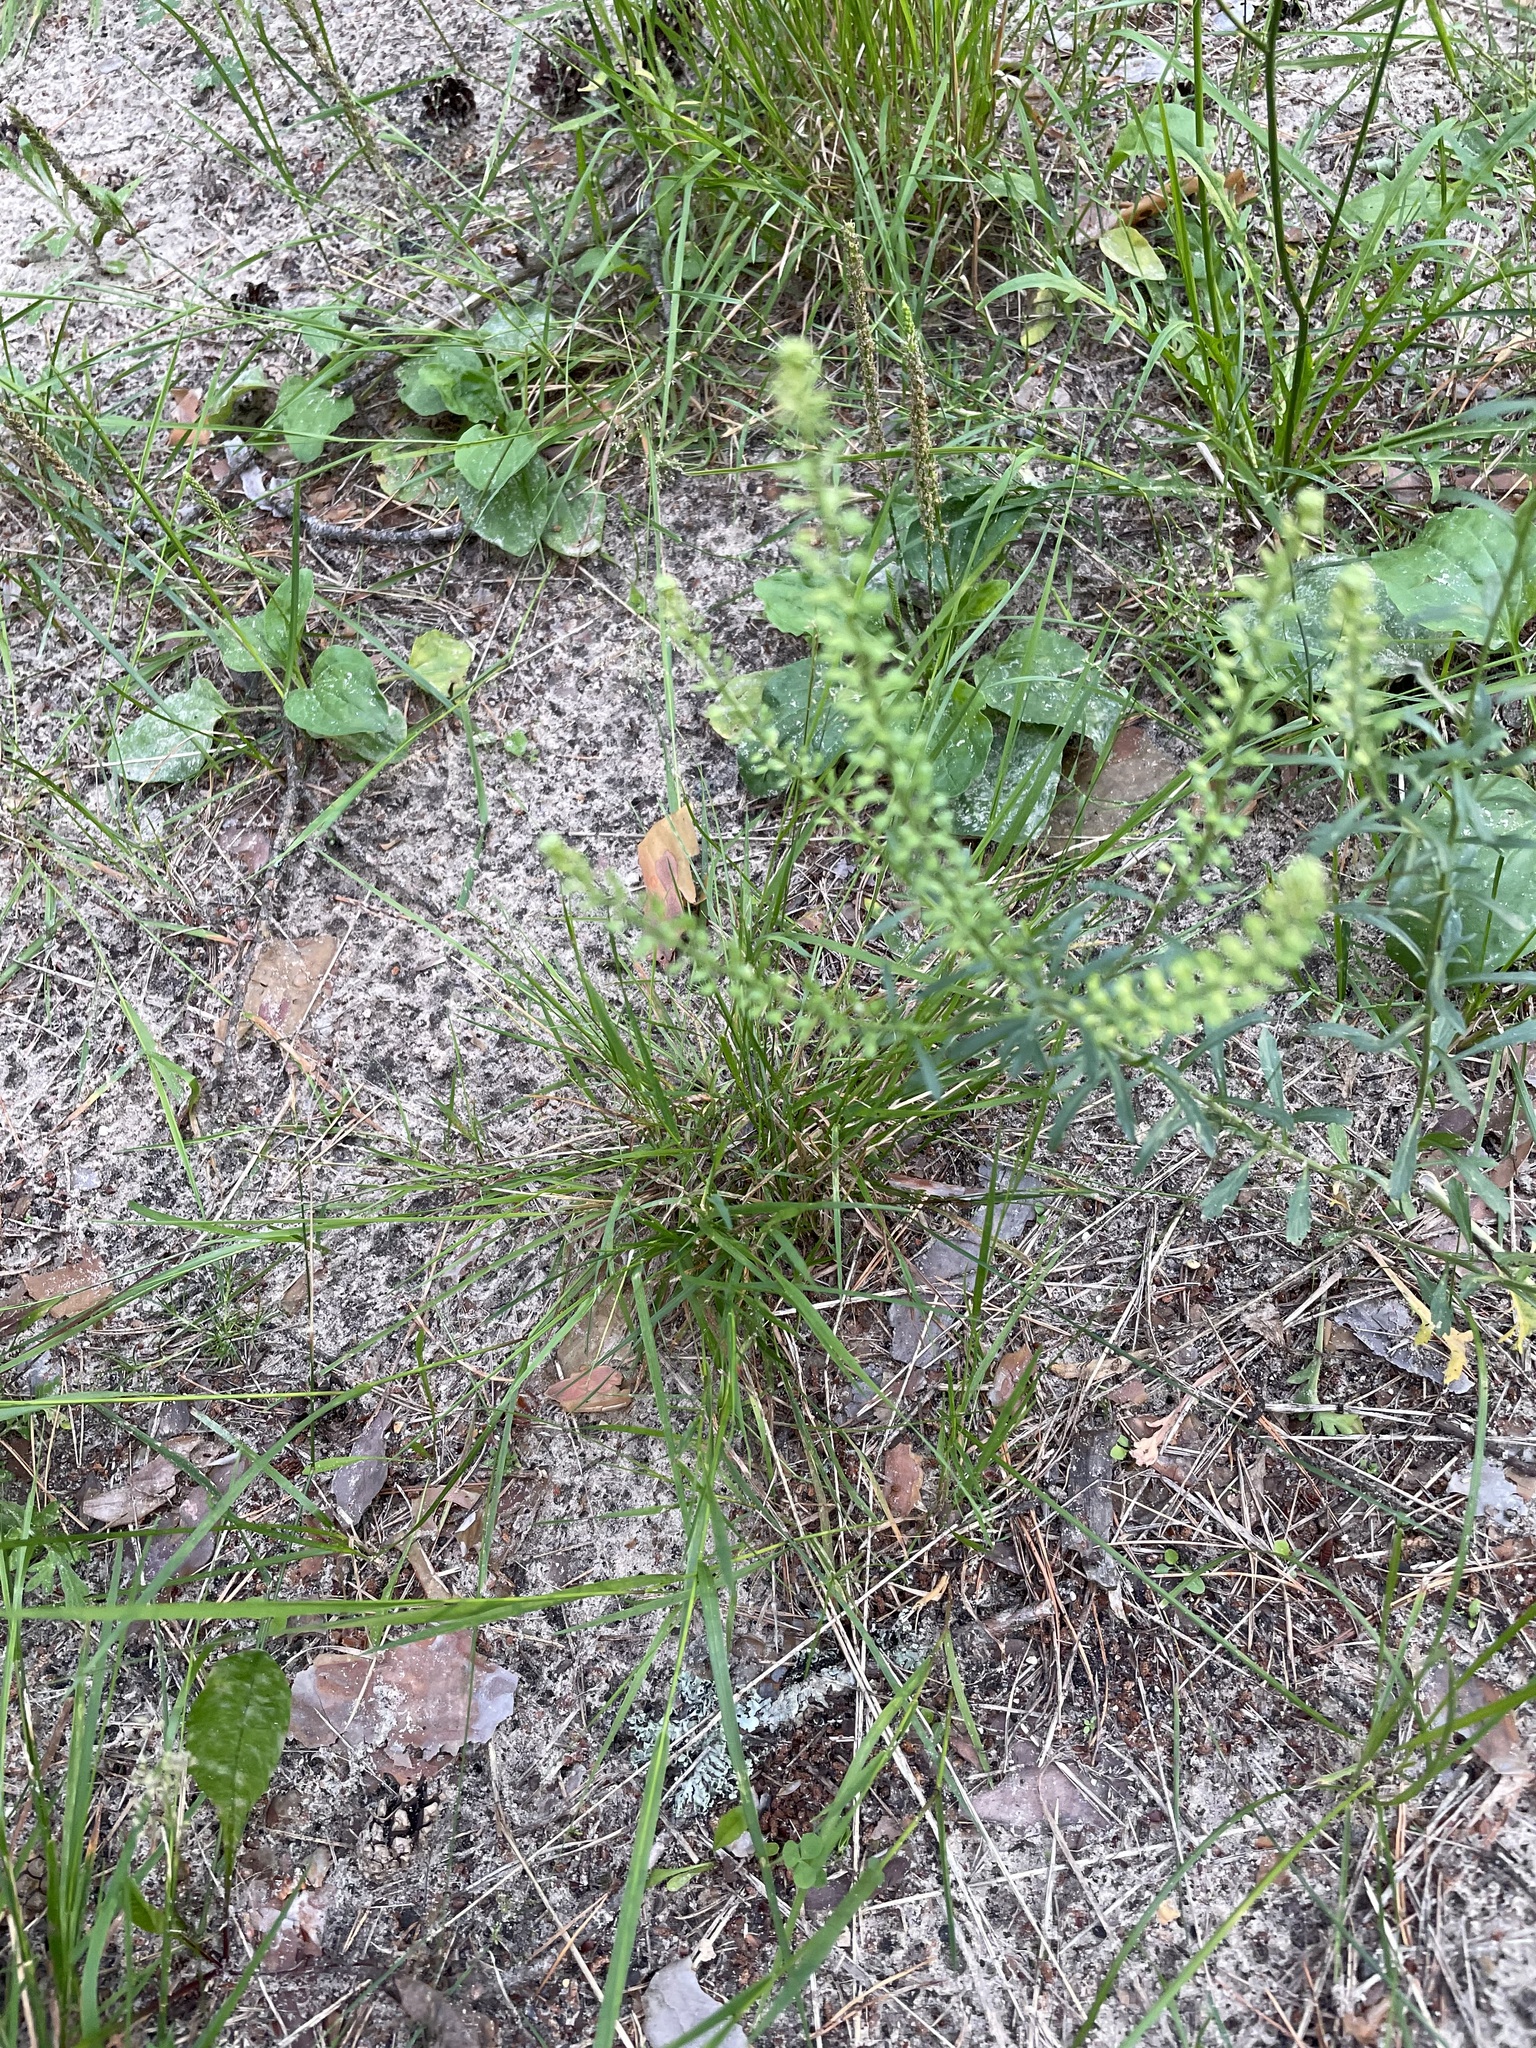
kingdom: Plantae
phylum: Tracheophyta
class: Magnoliopsida
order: Brassicales
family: Brassicaceae
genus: Lepidium
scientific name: Lepidium densiflorum
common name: Miner's pepperwort
